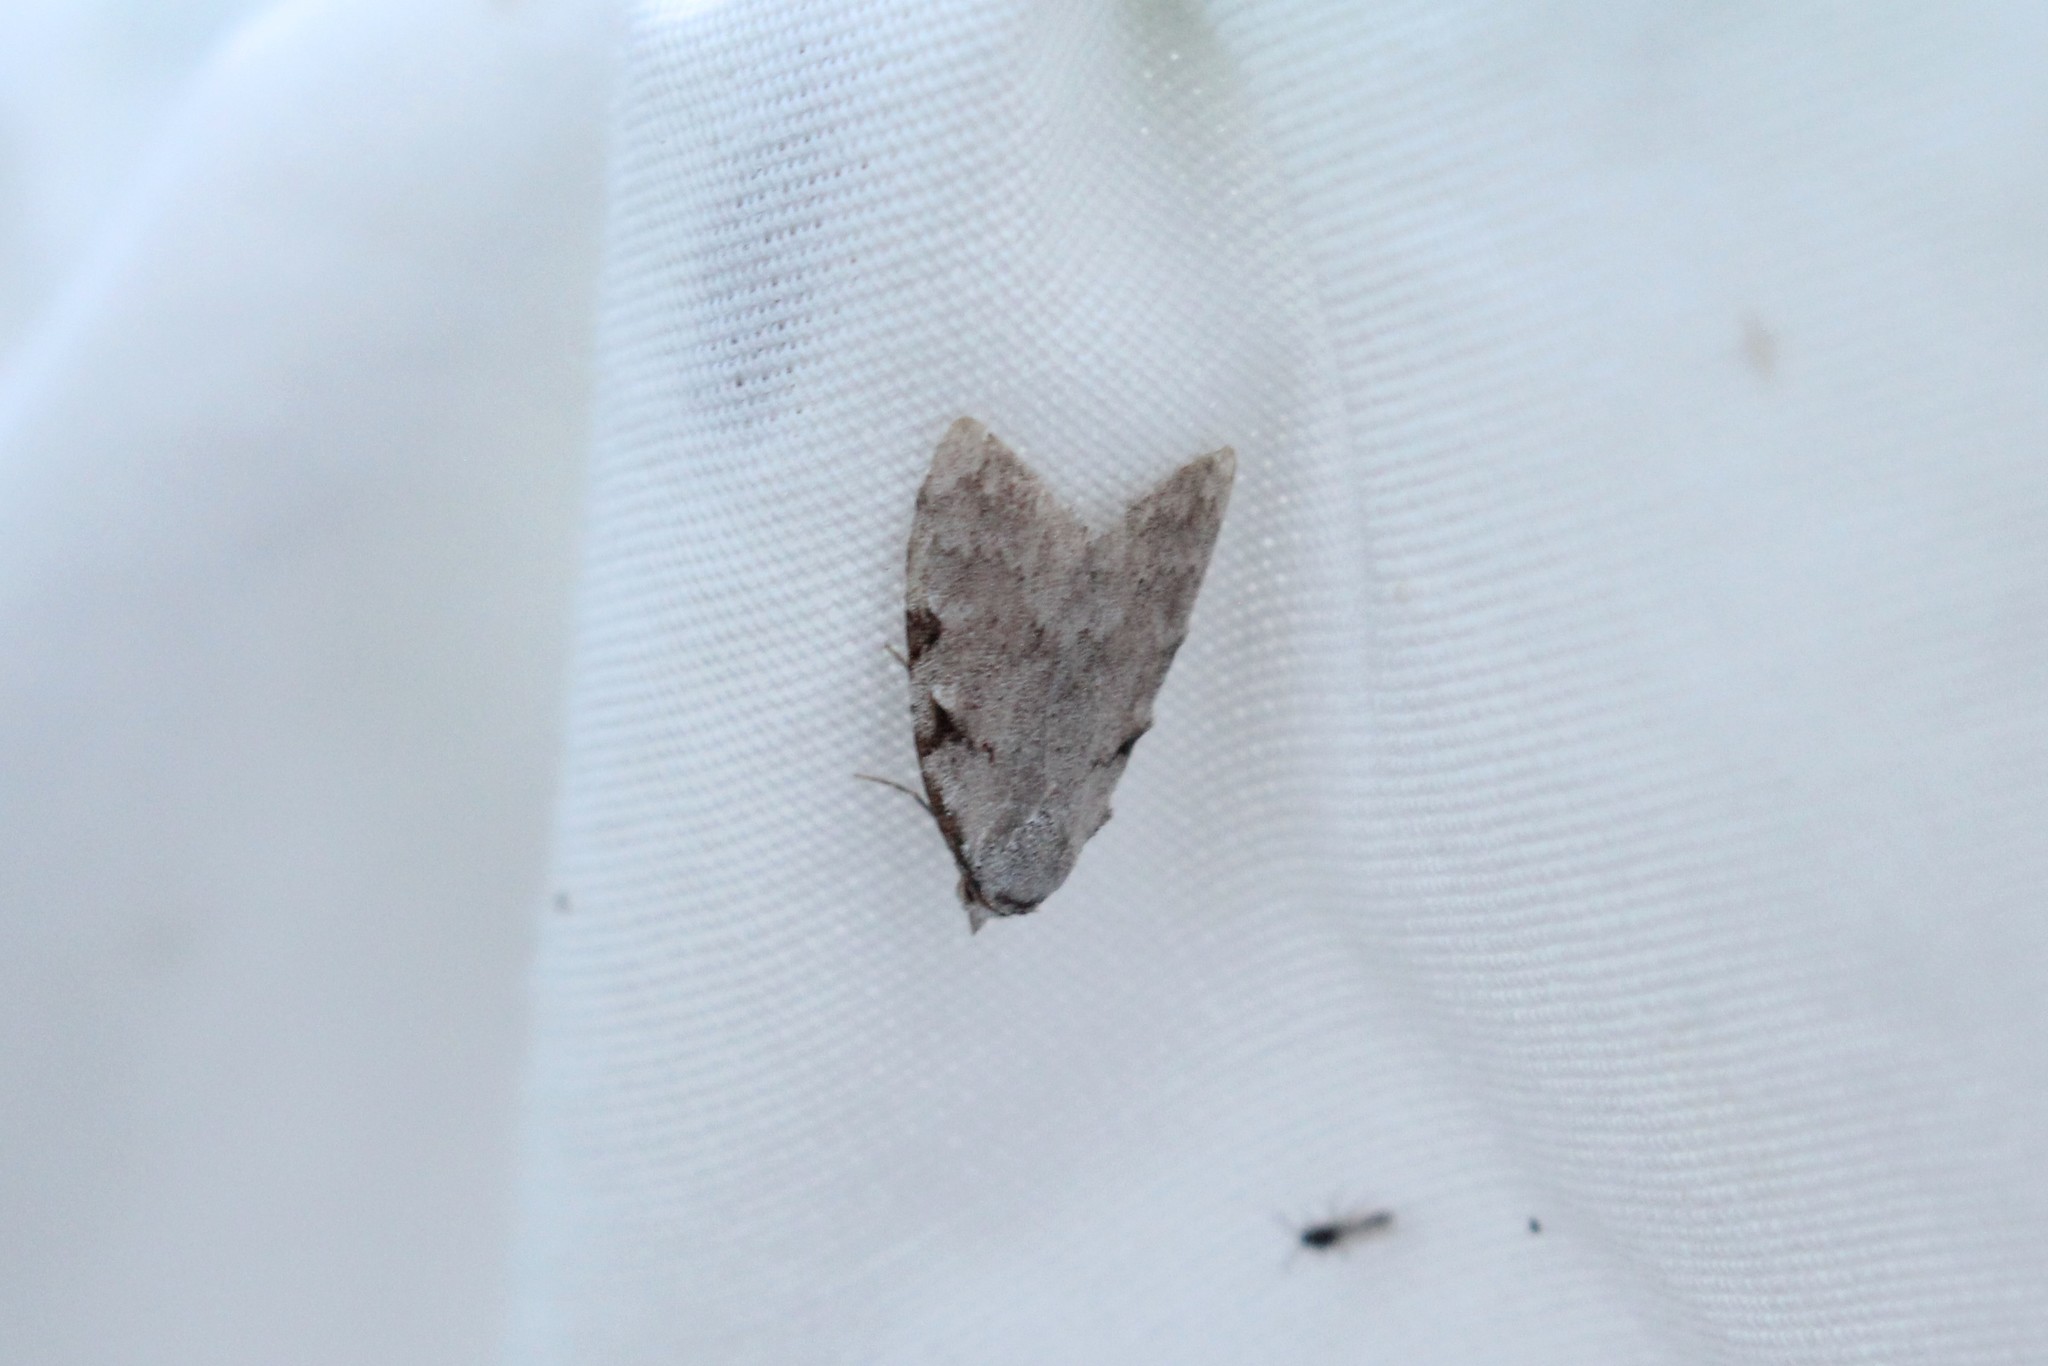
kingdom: Animalia
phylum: Arthropoda
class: Insecta
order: Lepidoptera
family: Nolidae
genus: Nola
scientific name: Nola triquetrana
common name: Three-spotted nola moth
